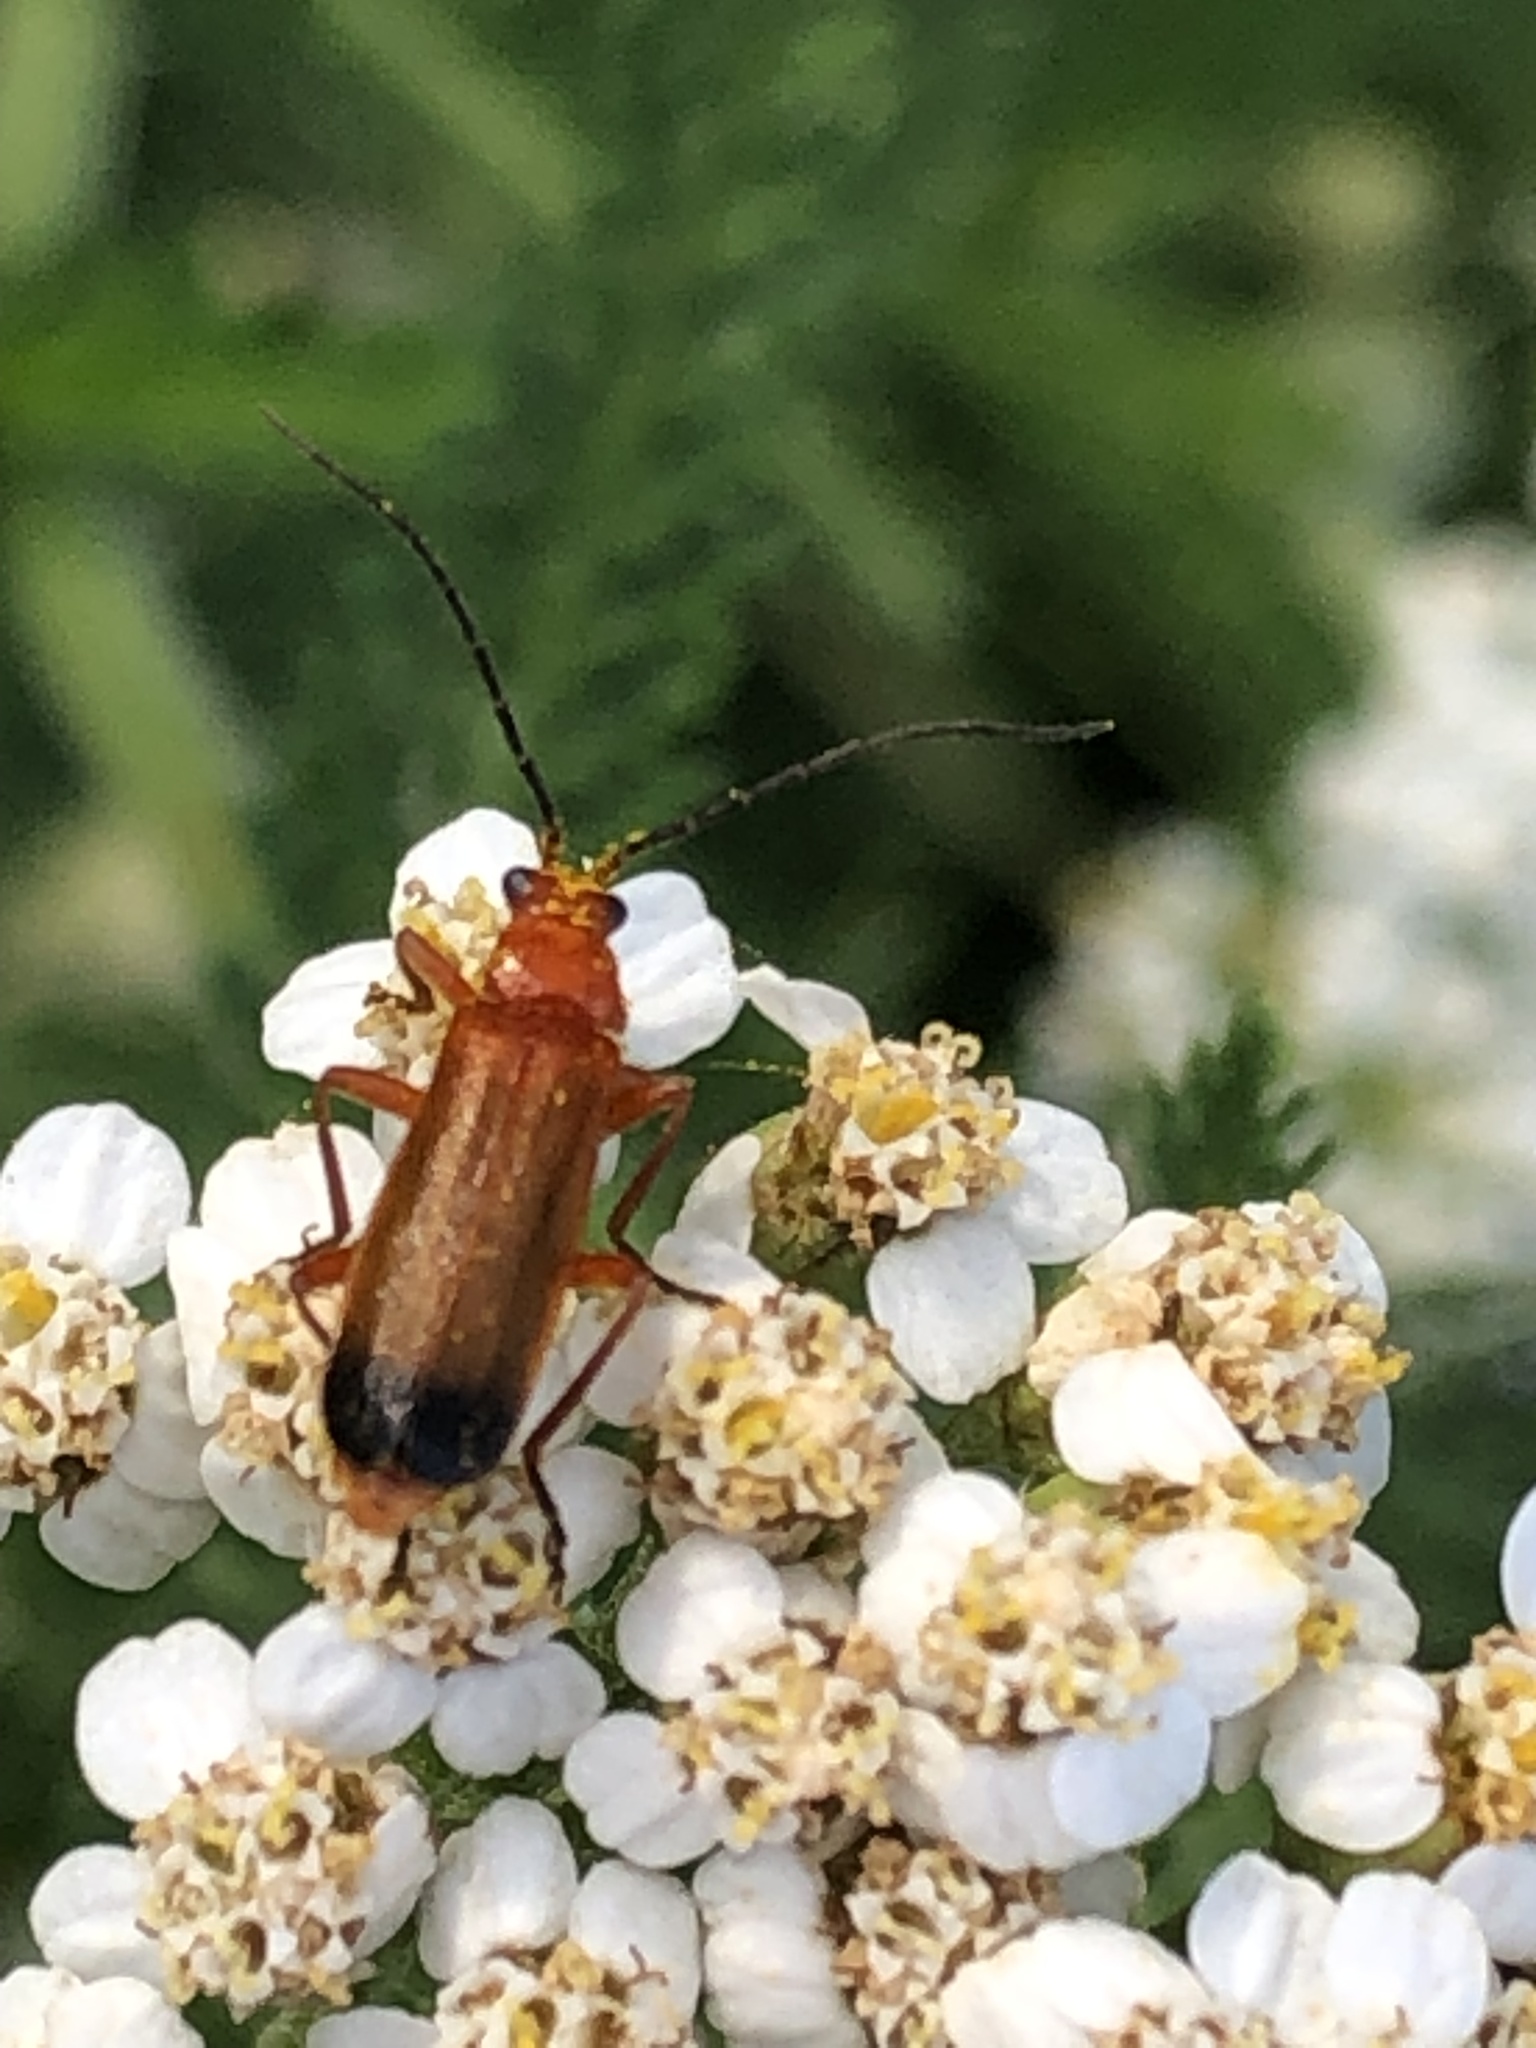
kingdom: Animalia
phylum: Arthropoda
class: Insecta
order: Coleoptera
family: Cantharidae
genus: Rhagonycha
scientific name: Rhagonycha fulva
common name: Common red soldier beetle
